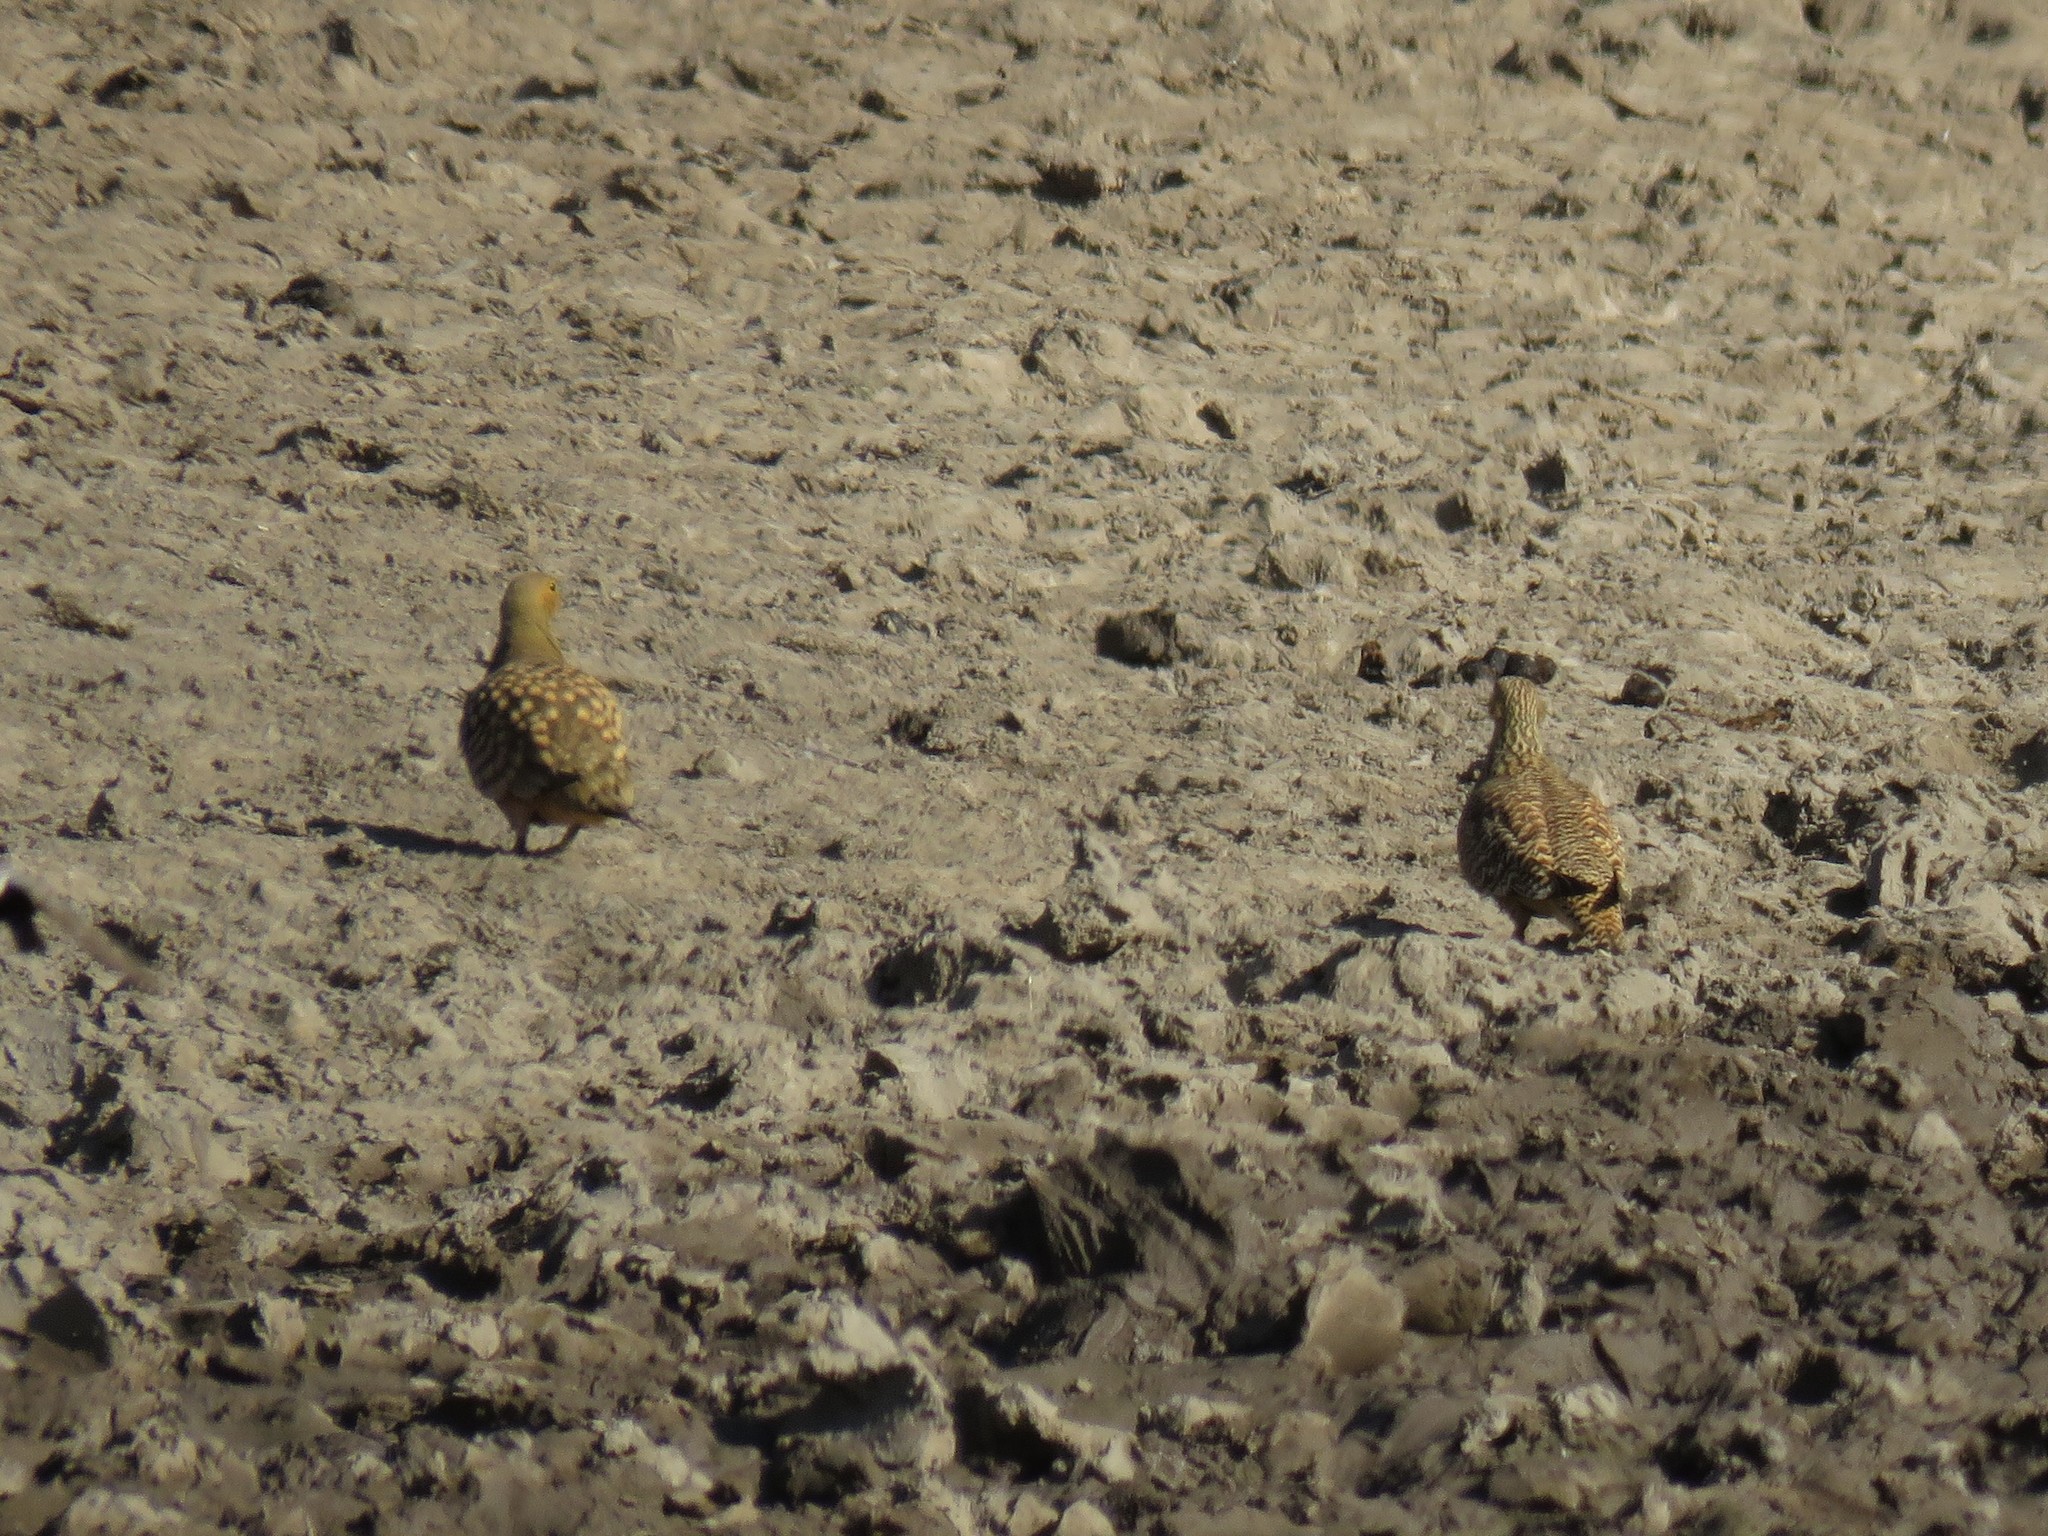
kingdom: Animalia
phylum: Chordata
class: Aves
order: Pteroclidiformes
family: Pteroclididae
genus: Pterocles
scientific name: Pterocles namaqua
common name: Namaqua sandgrouse
